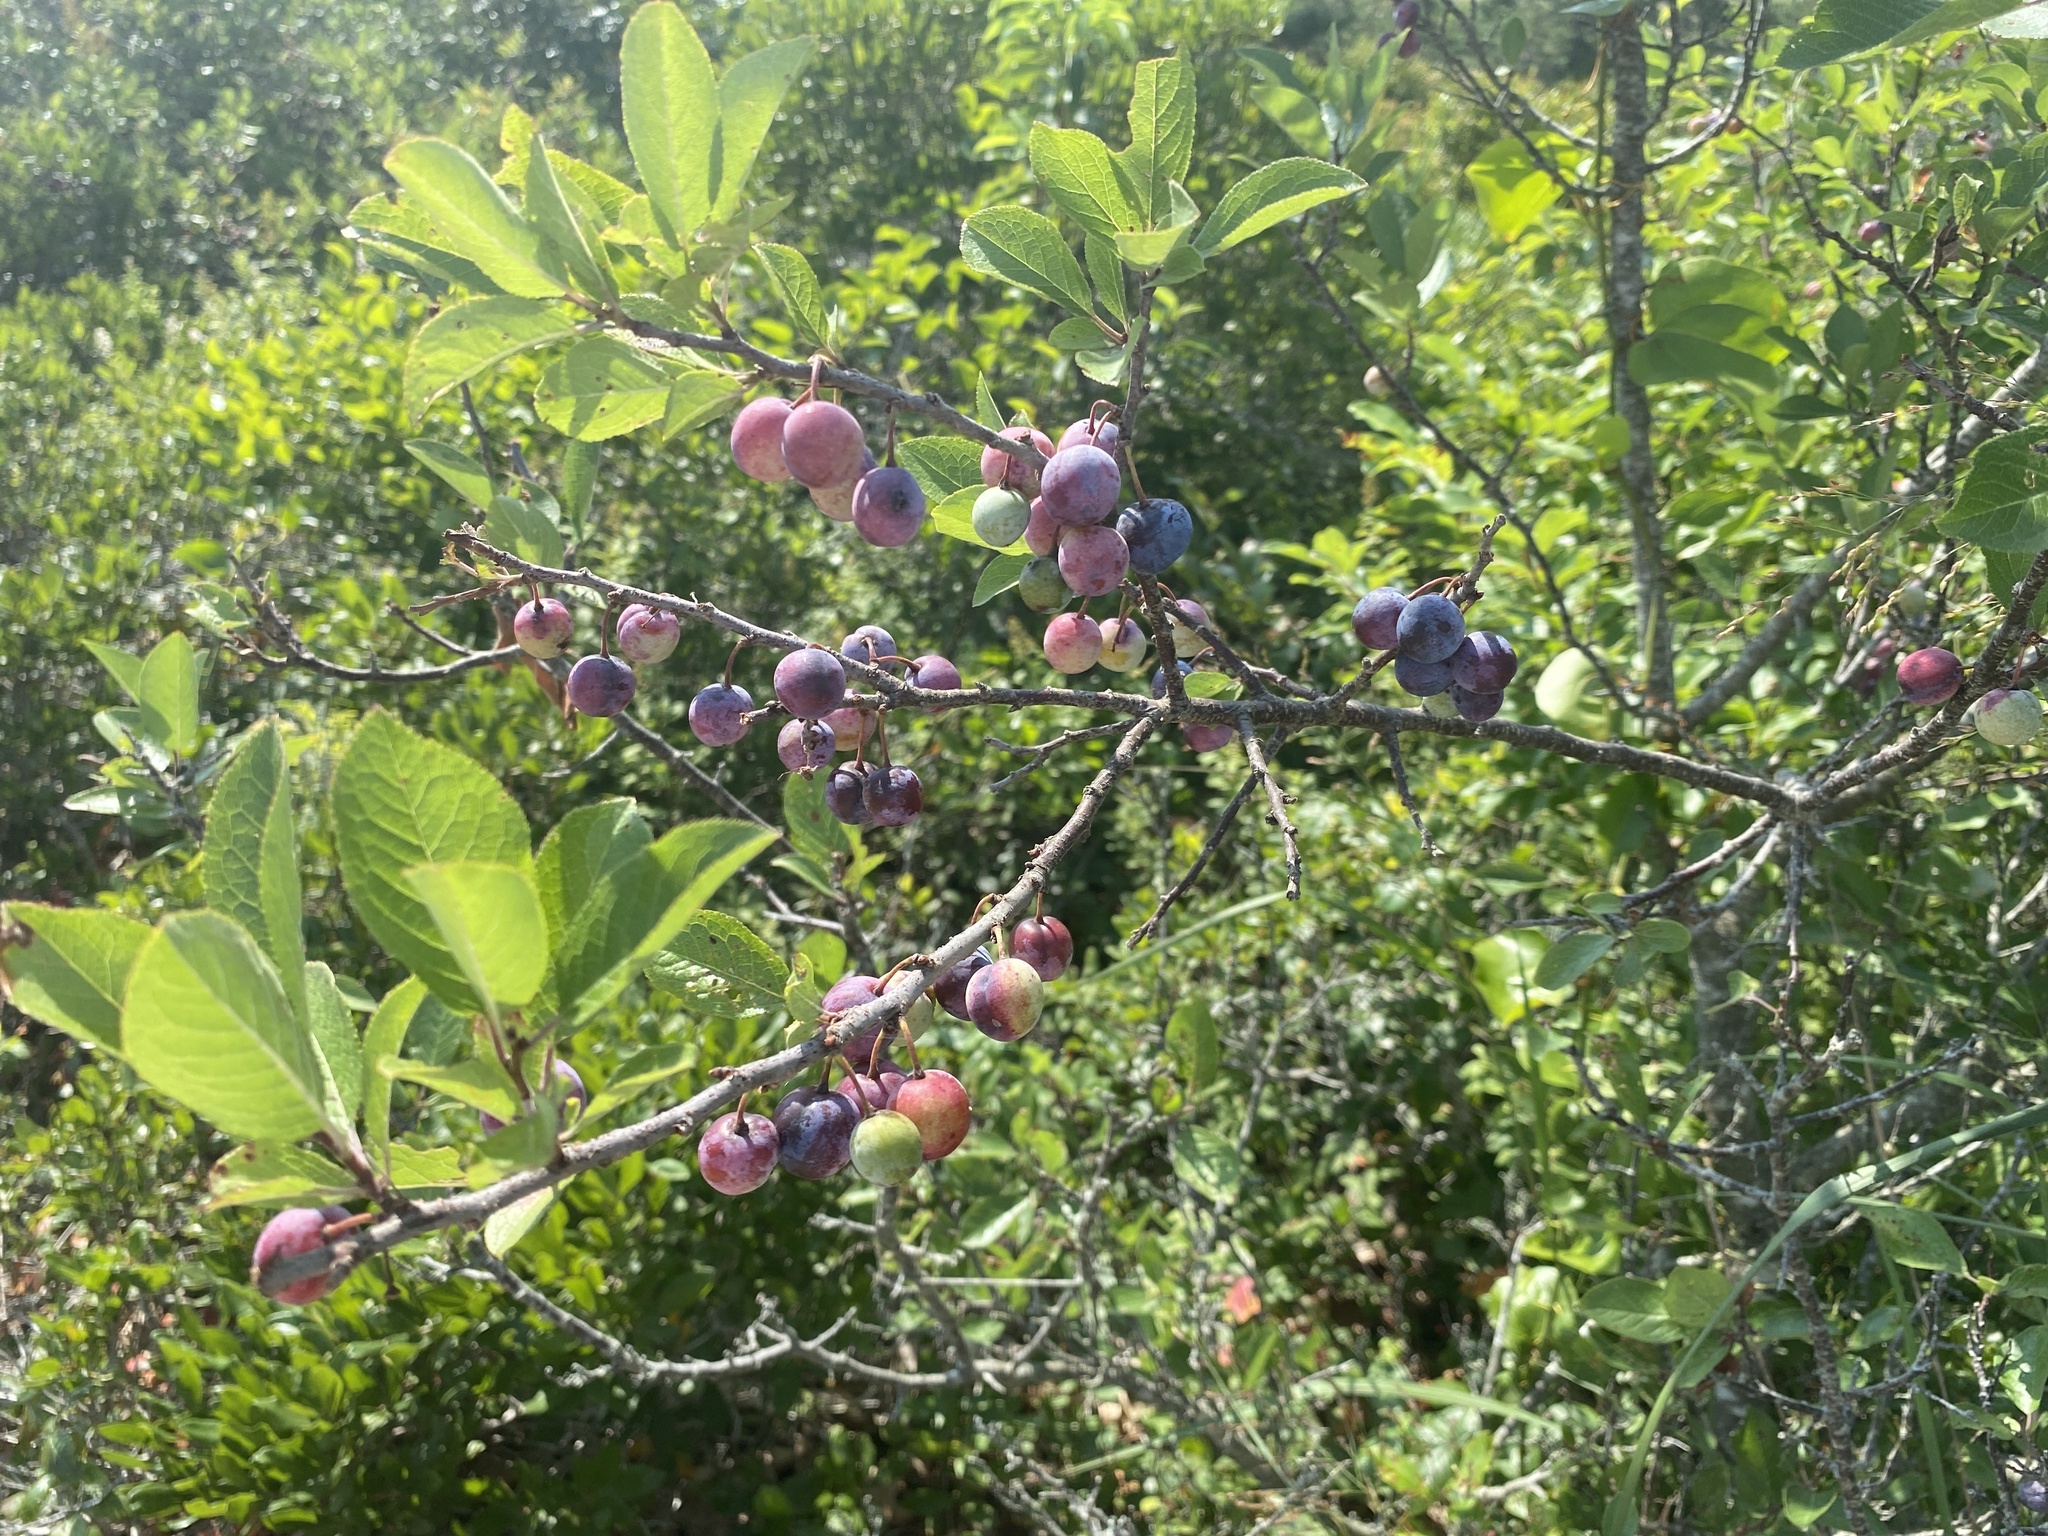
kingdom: Plantae
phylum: Tracheophyta
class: Magnoliopsida
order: Rosales
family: Rosaceae
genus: Prunus
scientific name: Prunus maritima
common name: Beach plum
